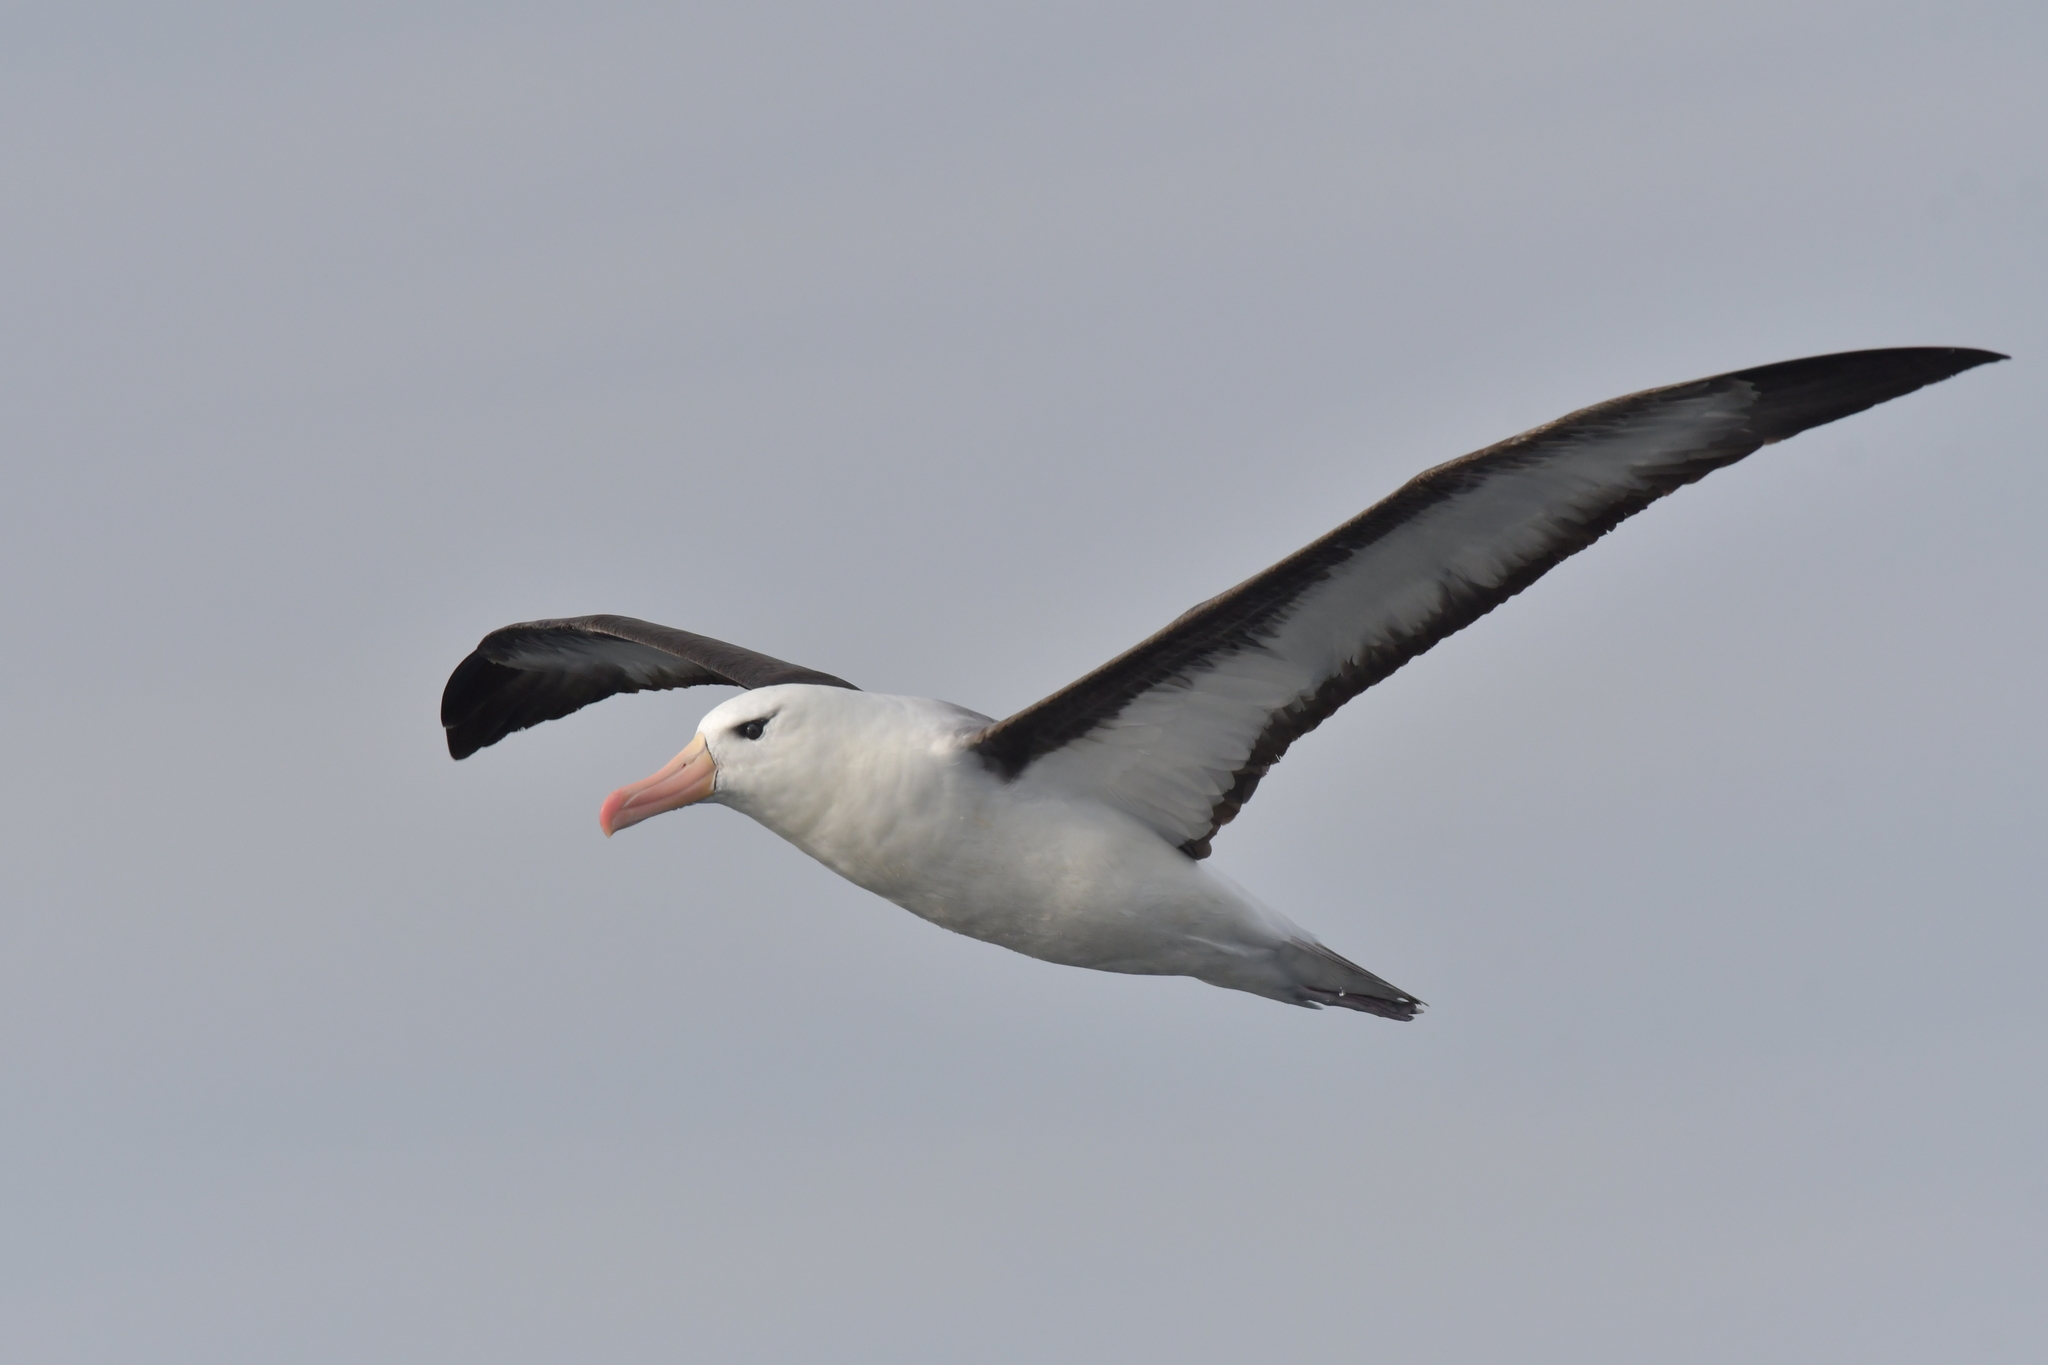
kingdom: Animalia
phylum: Chordata
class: Aves
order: Procellariiformes
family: Diomedeidae
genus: Thalassarche
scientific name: Thalassarche melanophris
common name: Black-browed albatross
